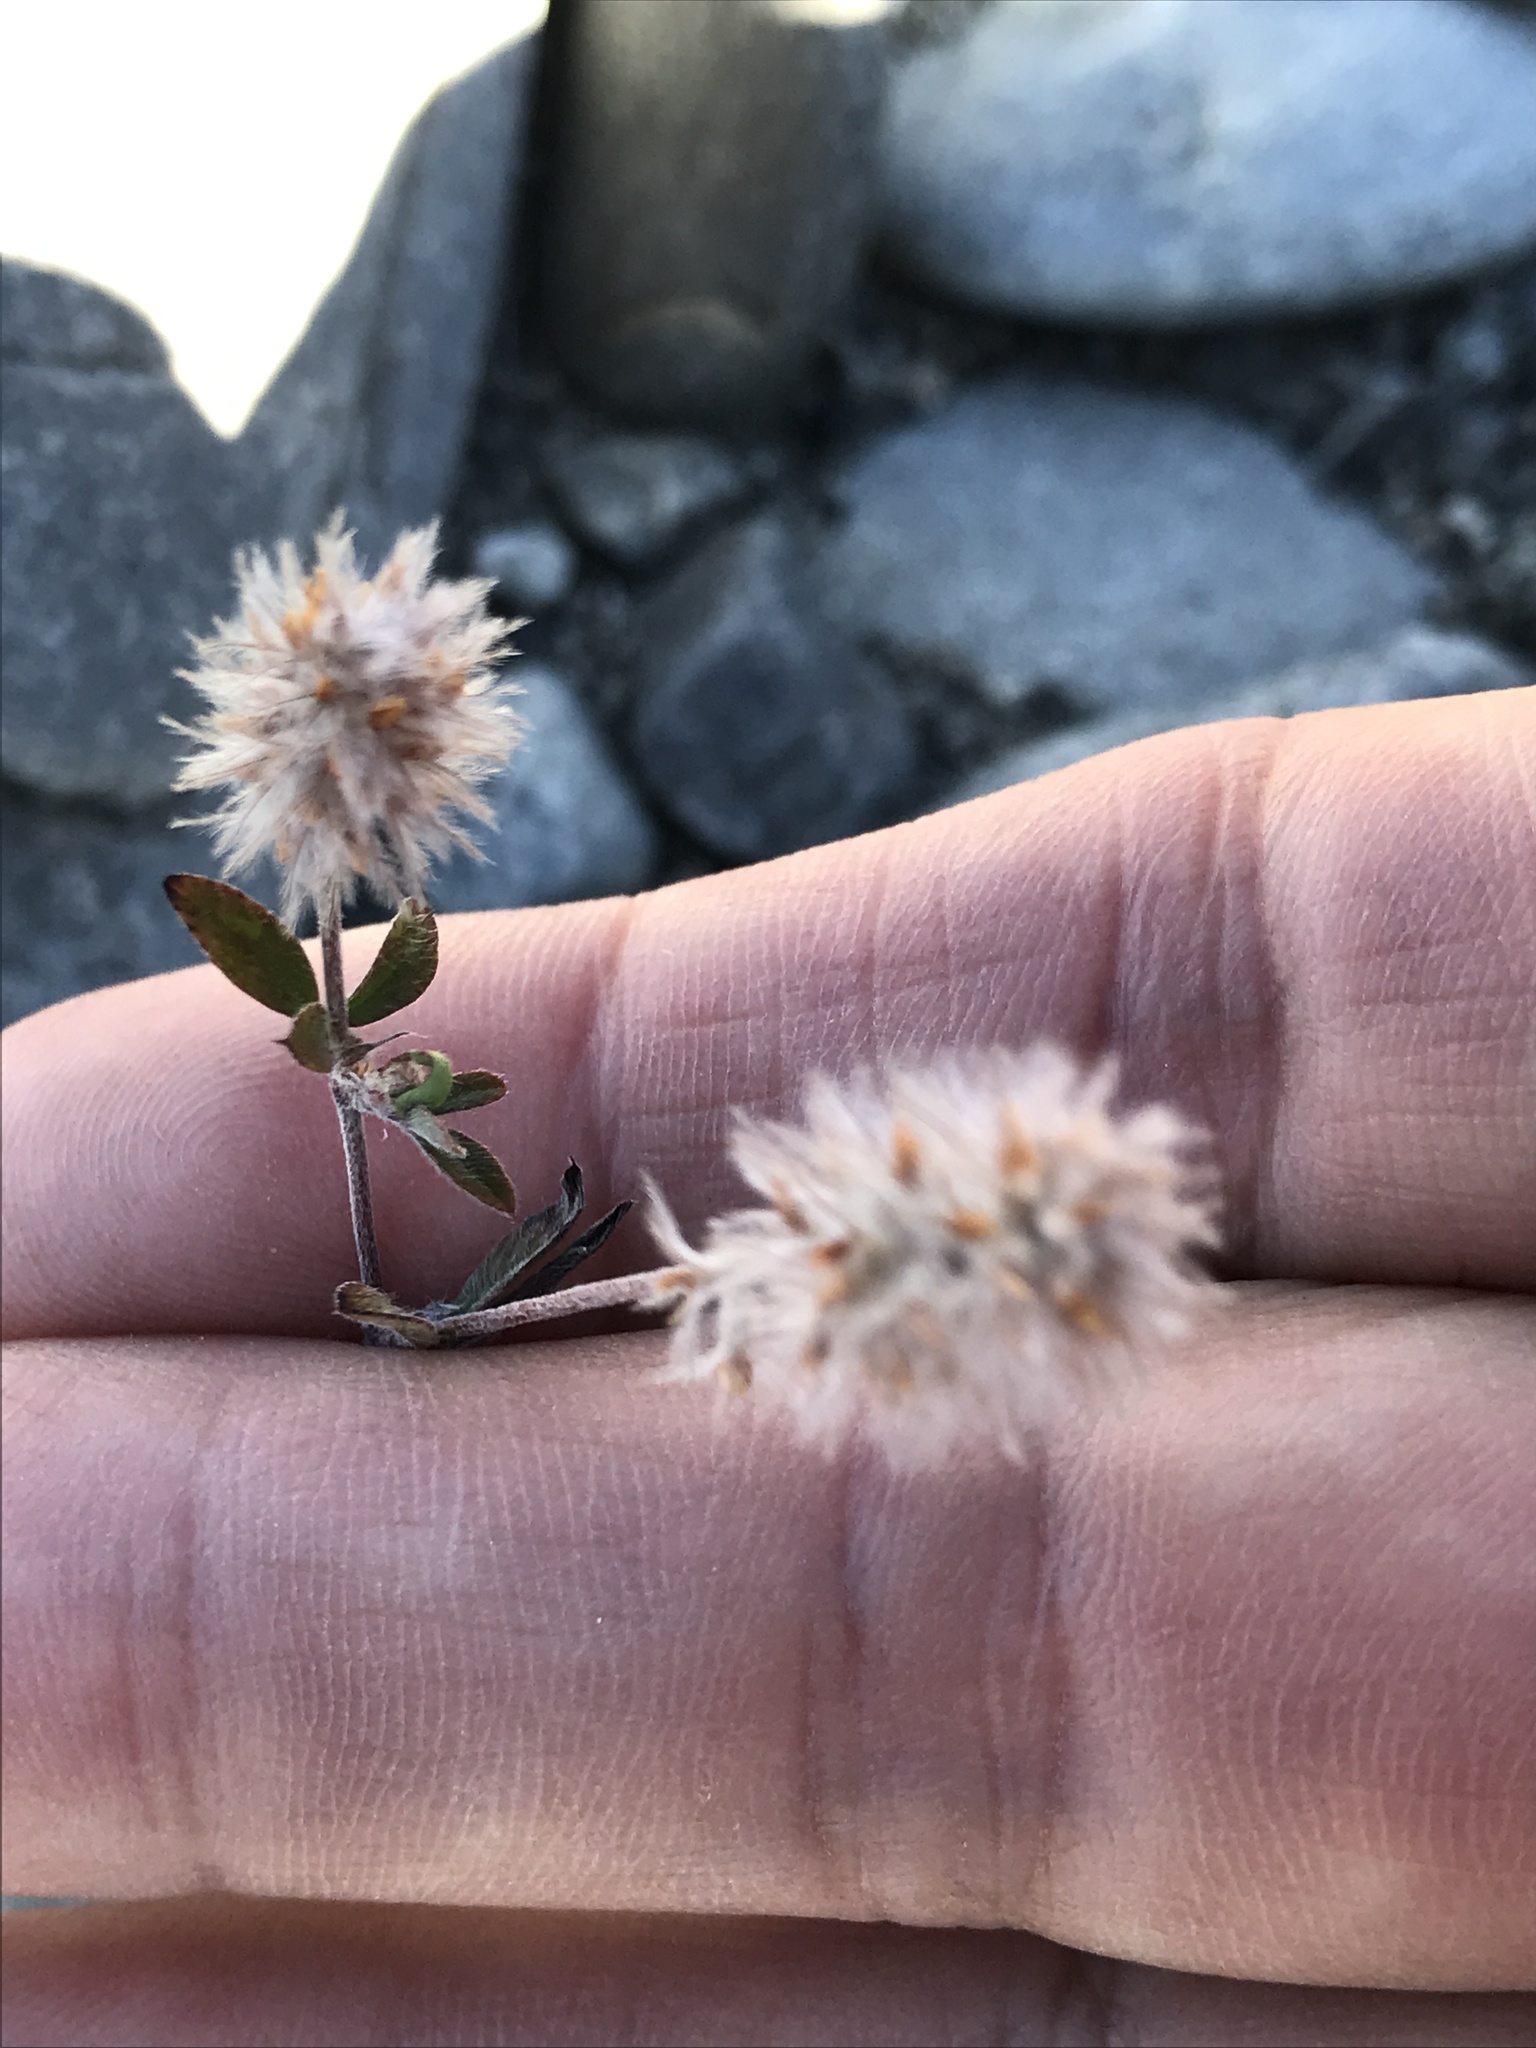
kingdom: Plantae
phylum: Tracheophyta
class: Magnoliopsida
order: Fabales
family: Fabaceae
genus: Trifolium
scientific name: Trifolium arvense
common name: Hare's-foot clover
